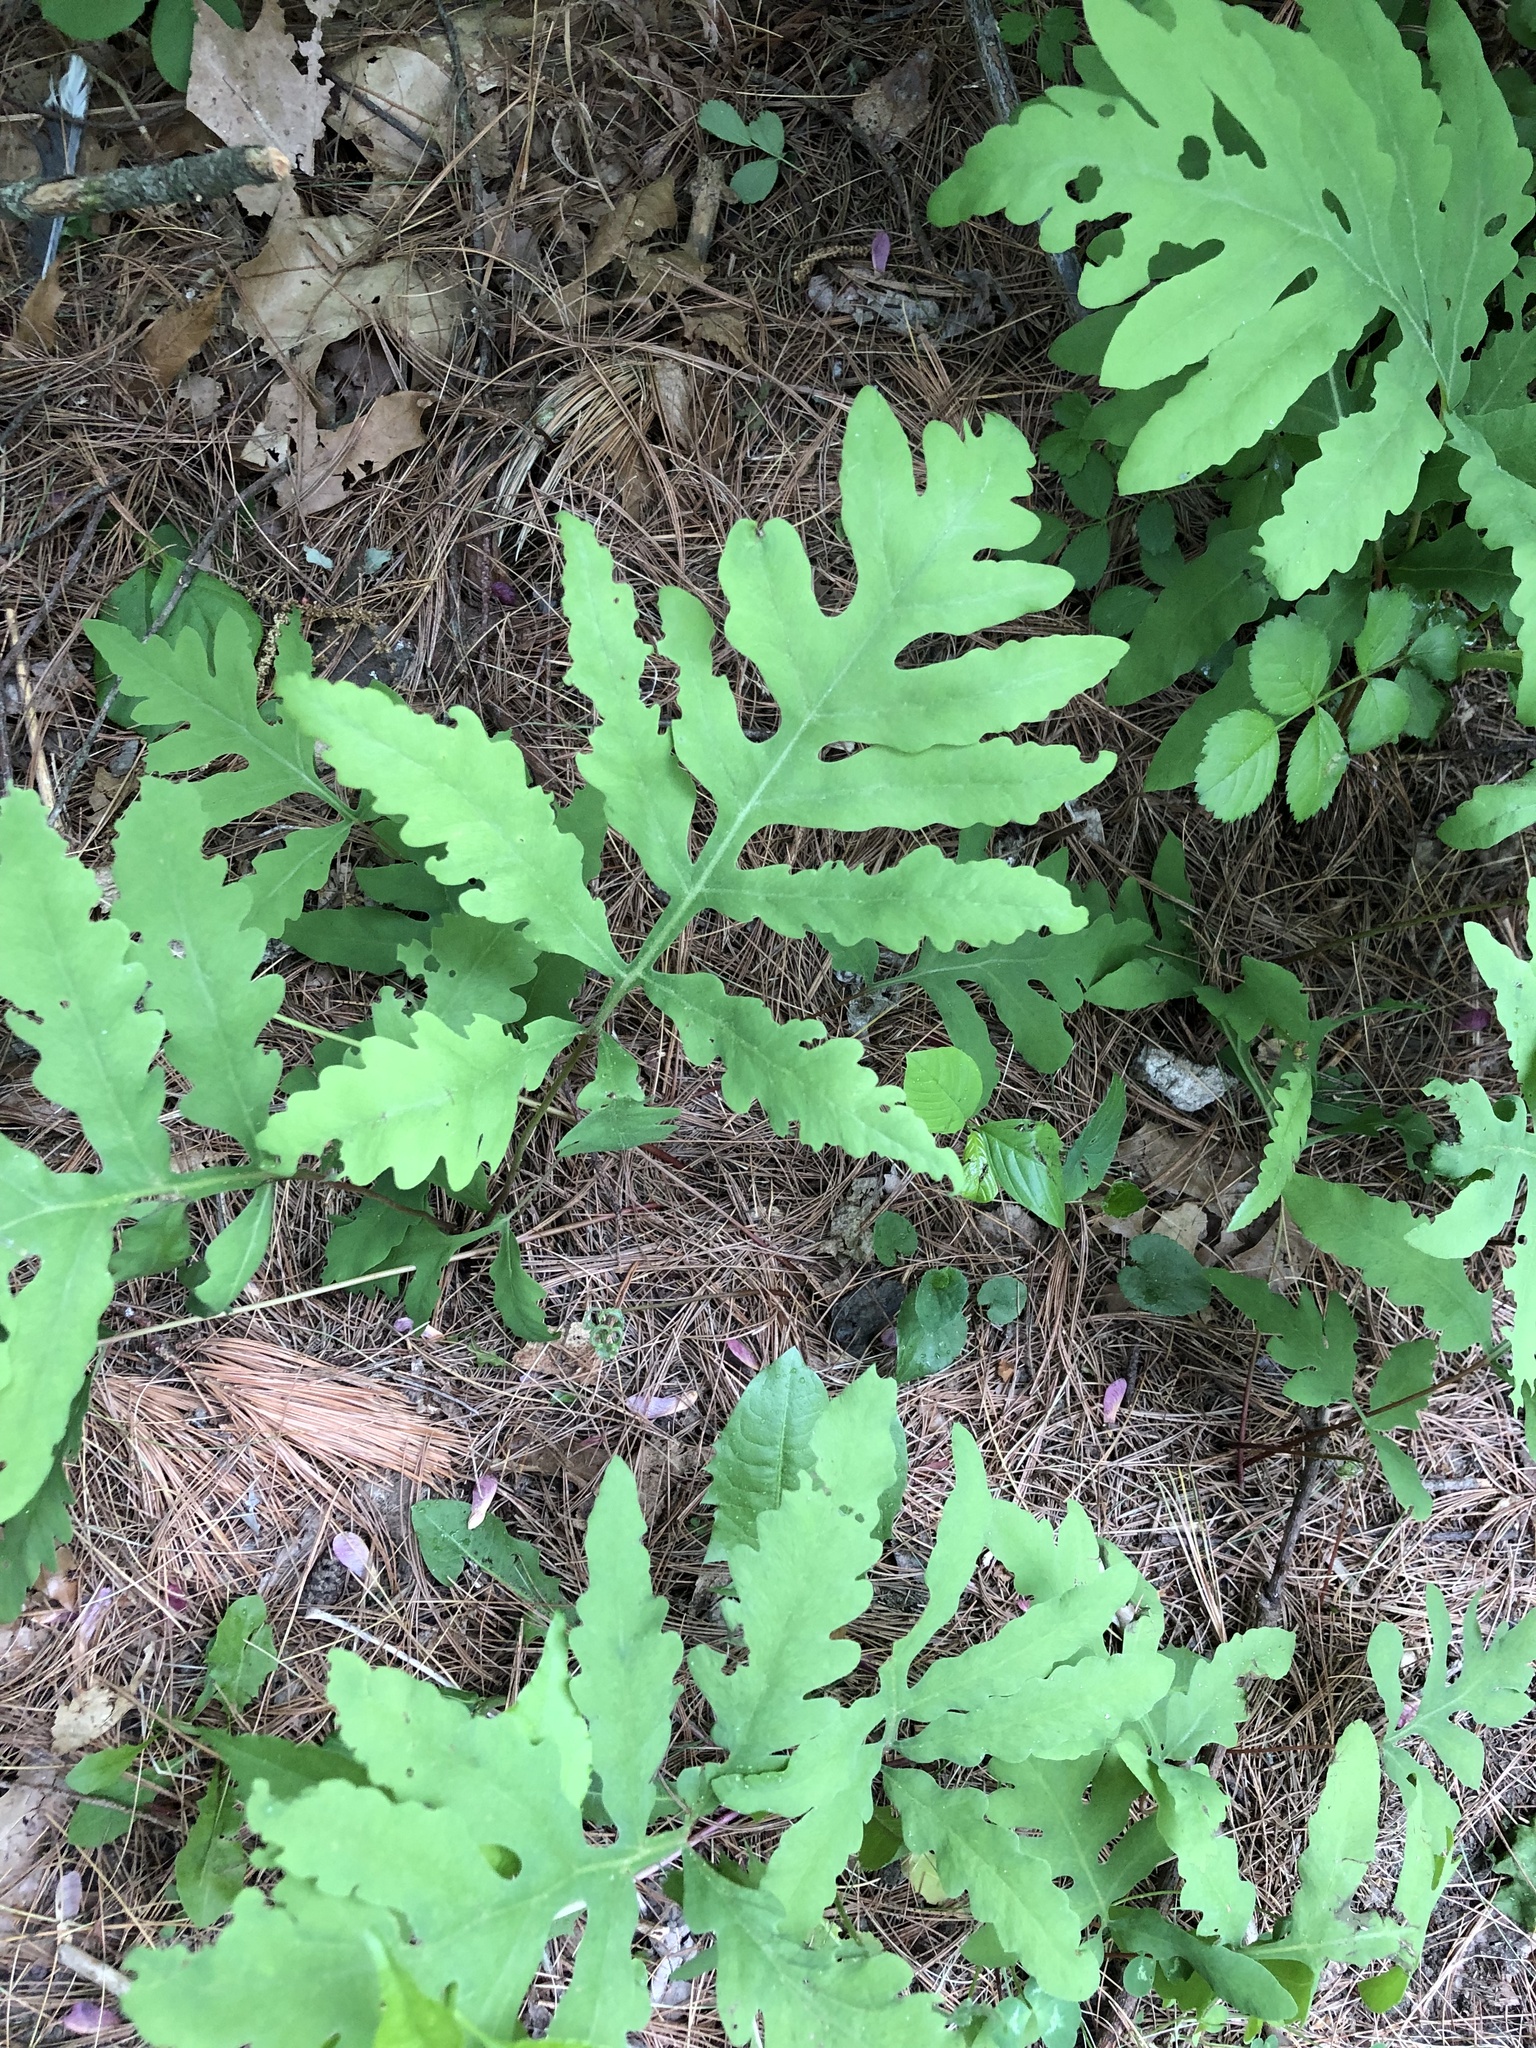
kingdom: Plantae
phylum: Tracheophyta
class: Polypodiopsida
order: Polypodiales
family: Onocleaceae
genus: Onoclea
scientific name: Onoclea sensibilis
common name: Sensitive fern
